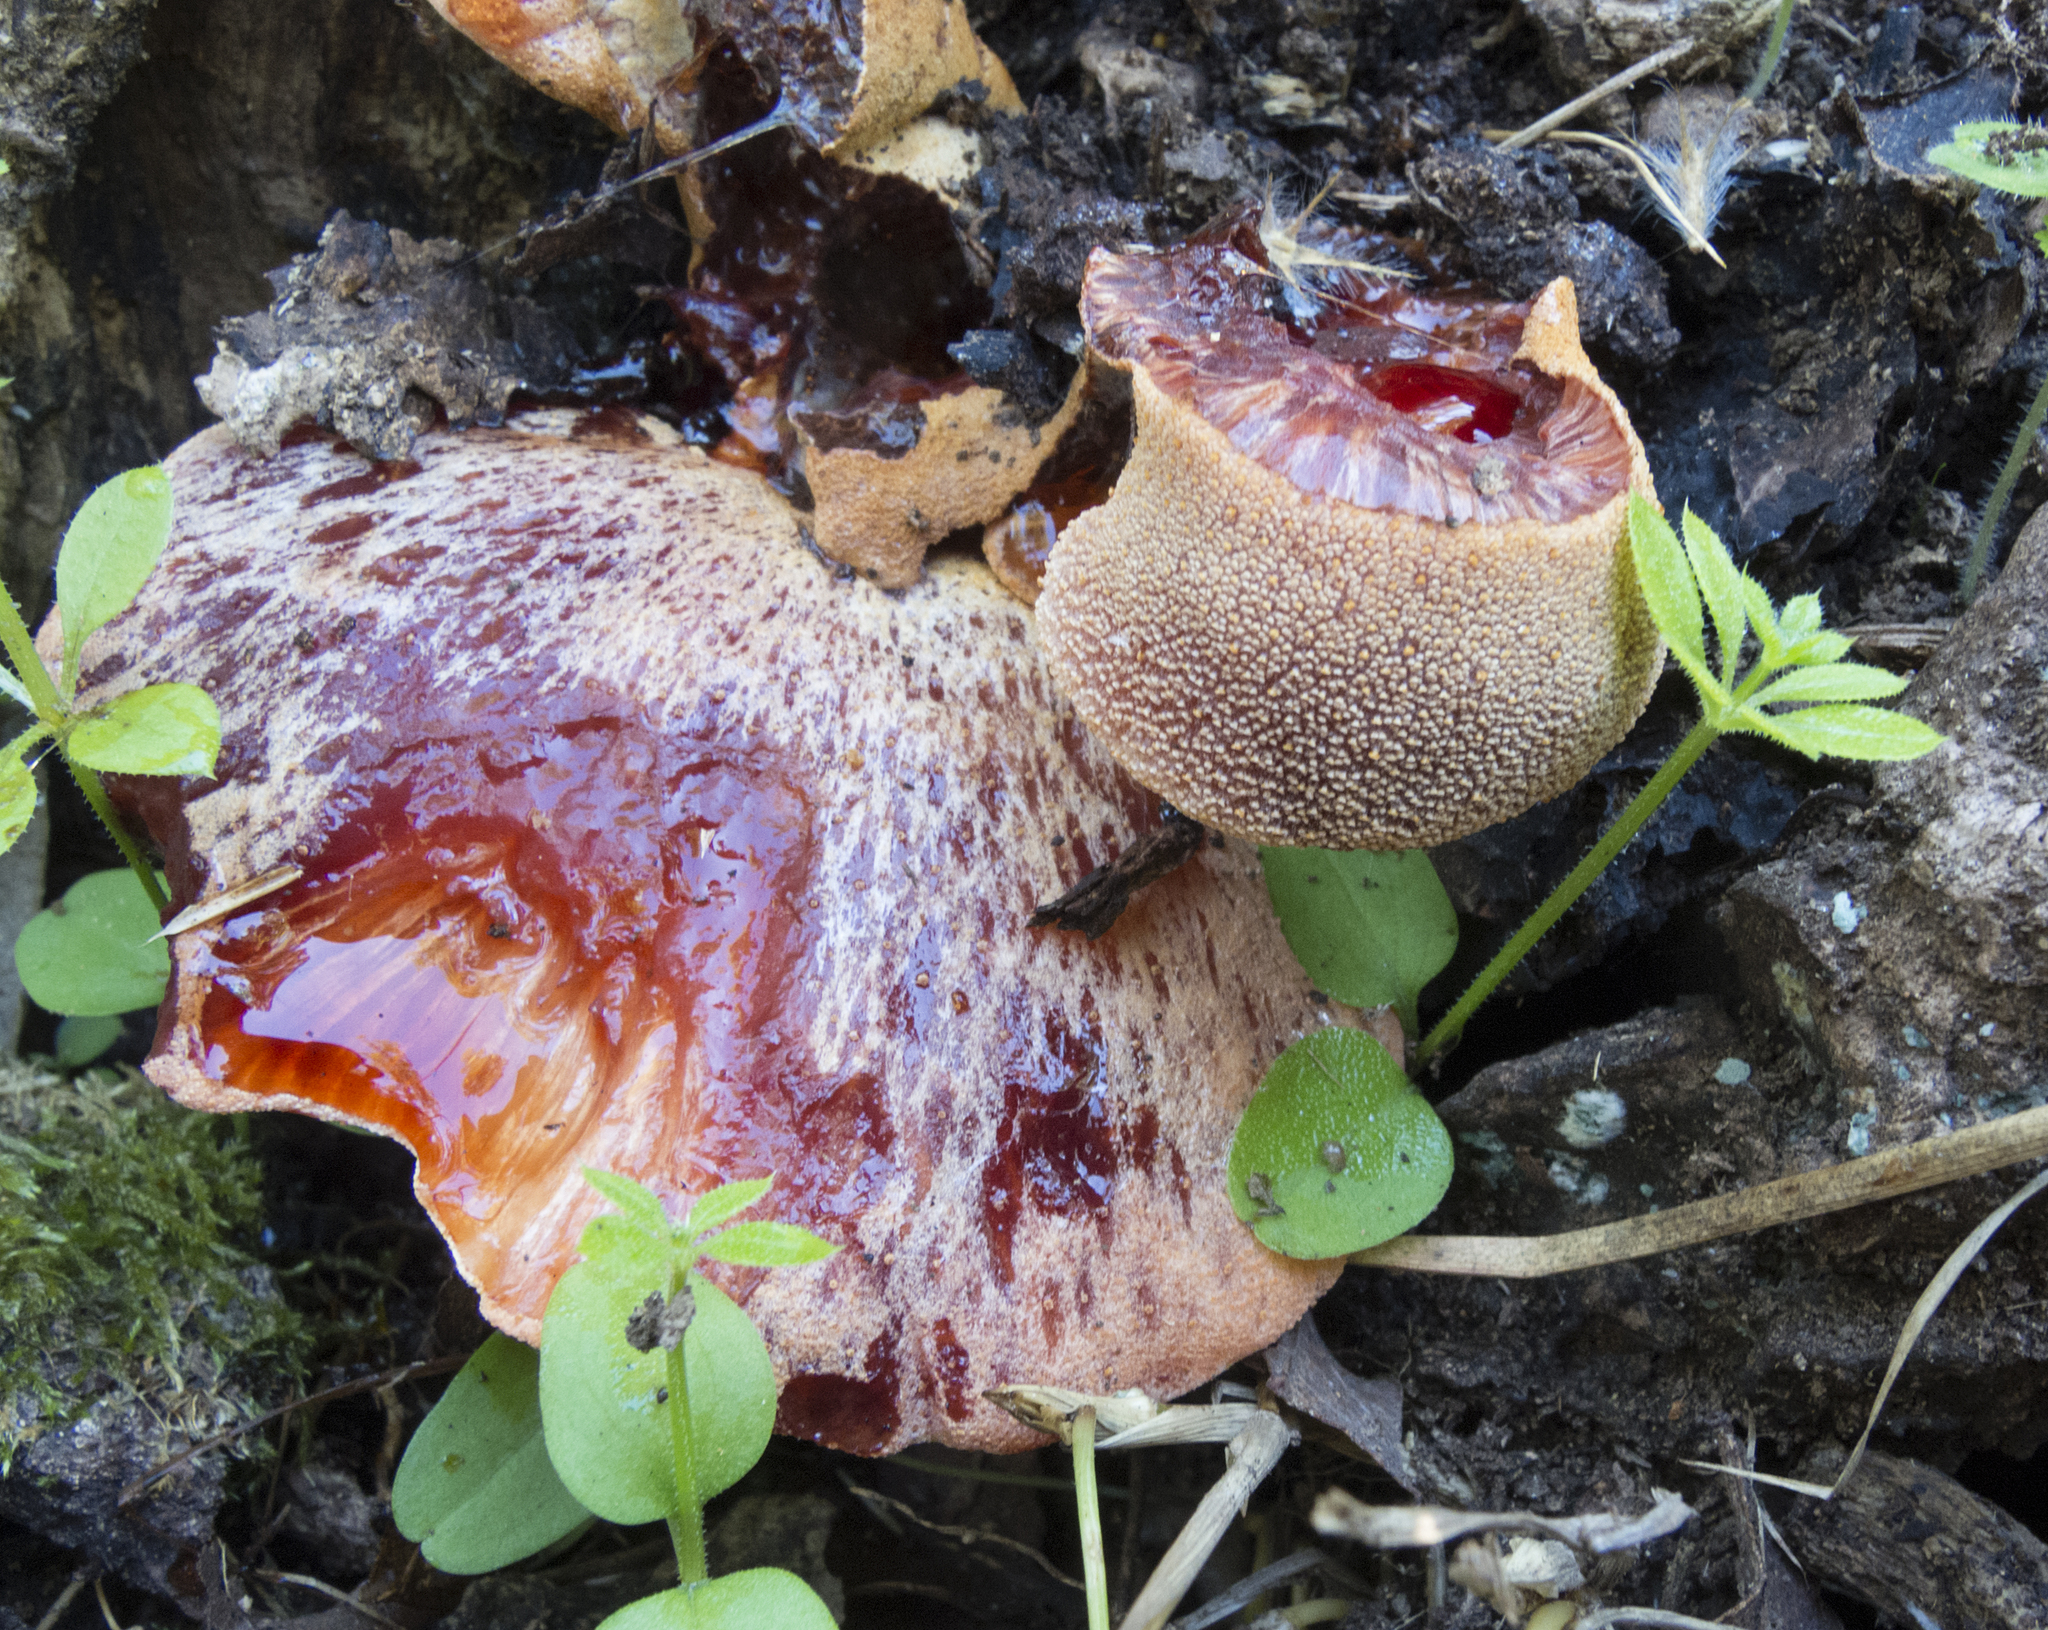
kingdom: Fungi
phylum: Basidiomycota
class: Agaricomycetes
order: Agaricales
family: Fistulinaceae
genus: Fistulina
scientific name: Fistulina hepatica
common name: Beef-steak fungus
